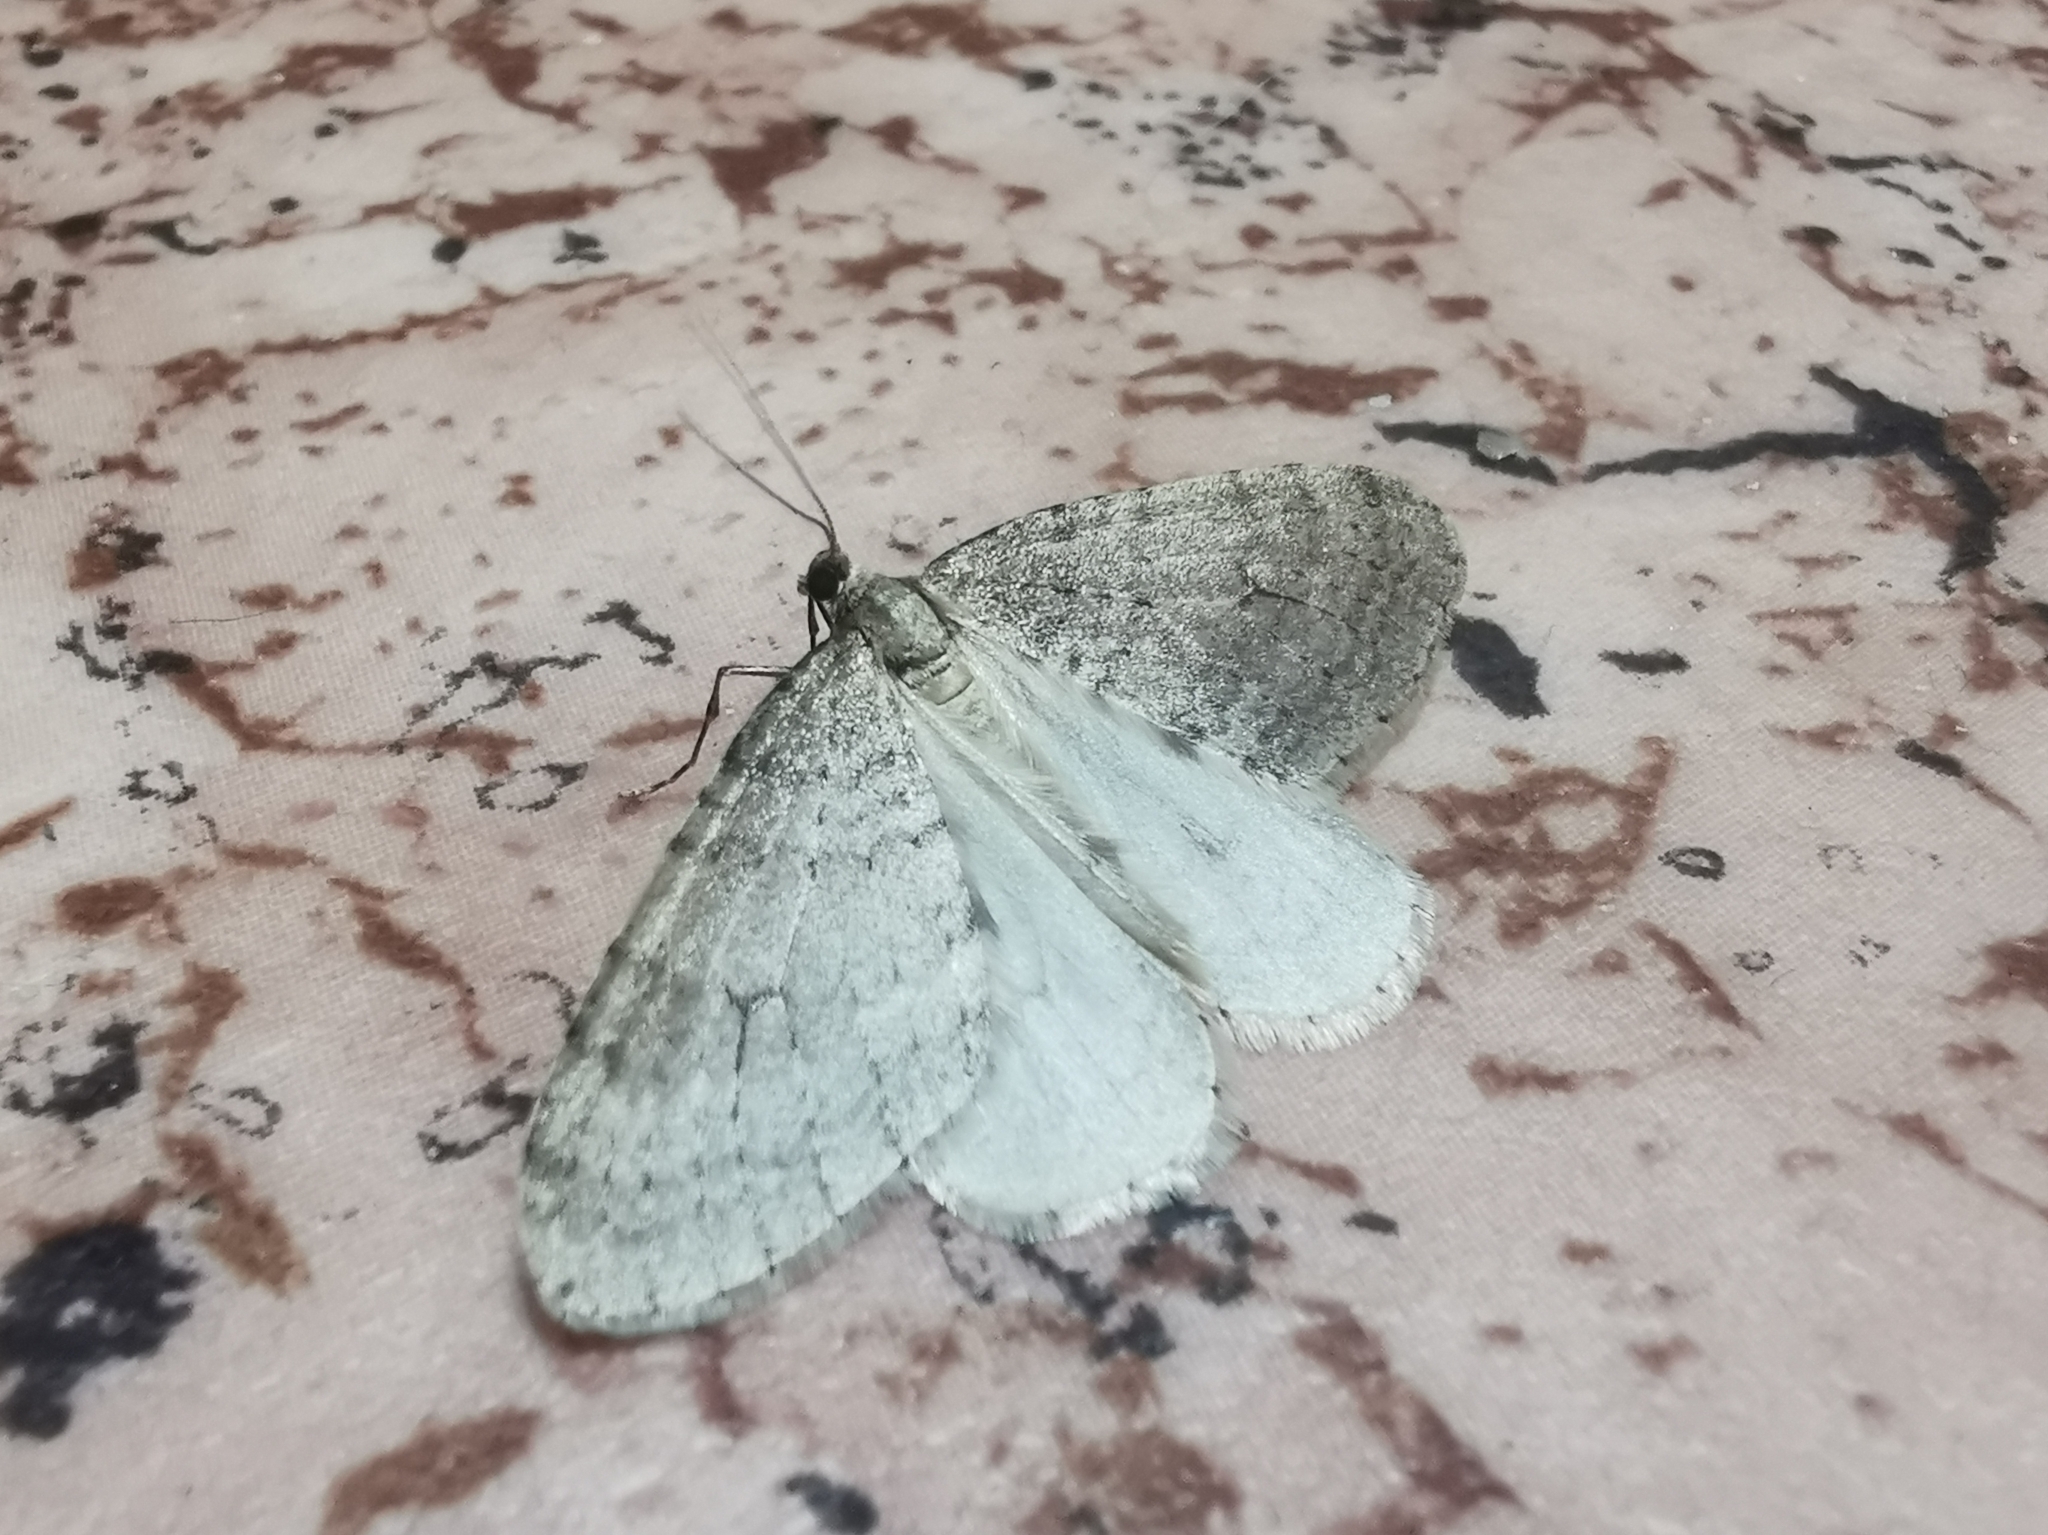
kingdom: Animalia
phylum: Arthropoda
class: Insecta
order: Lepidoptera
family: Geometridae
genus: Operophtera
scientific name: Operophtera fagata
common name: Northern winter moth
